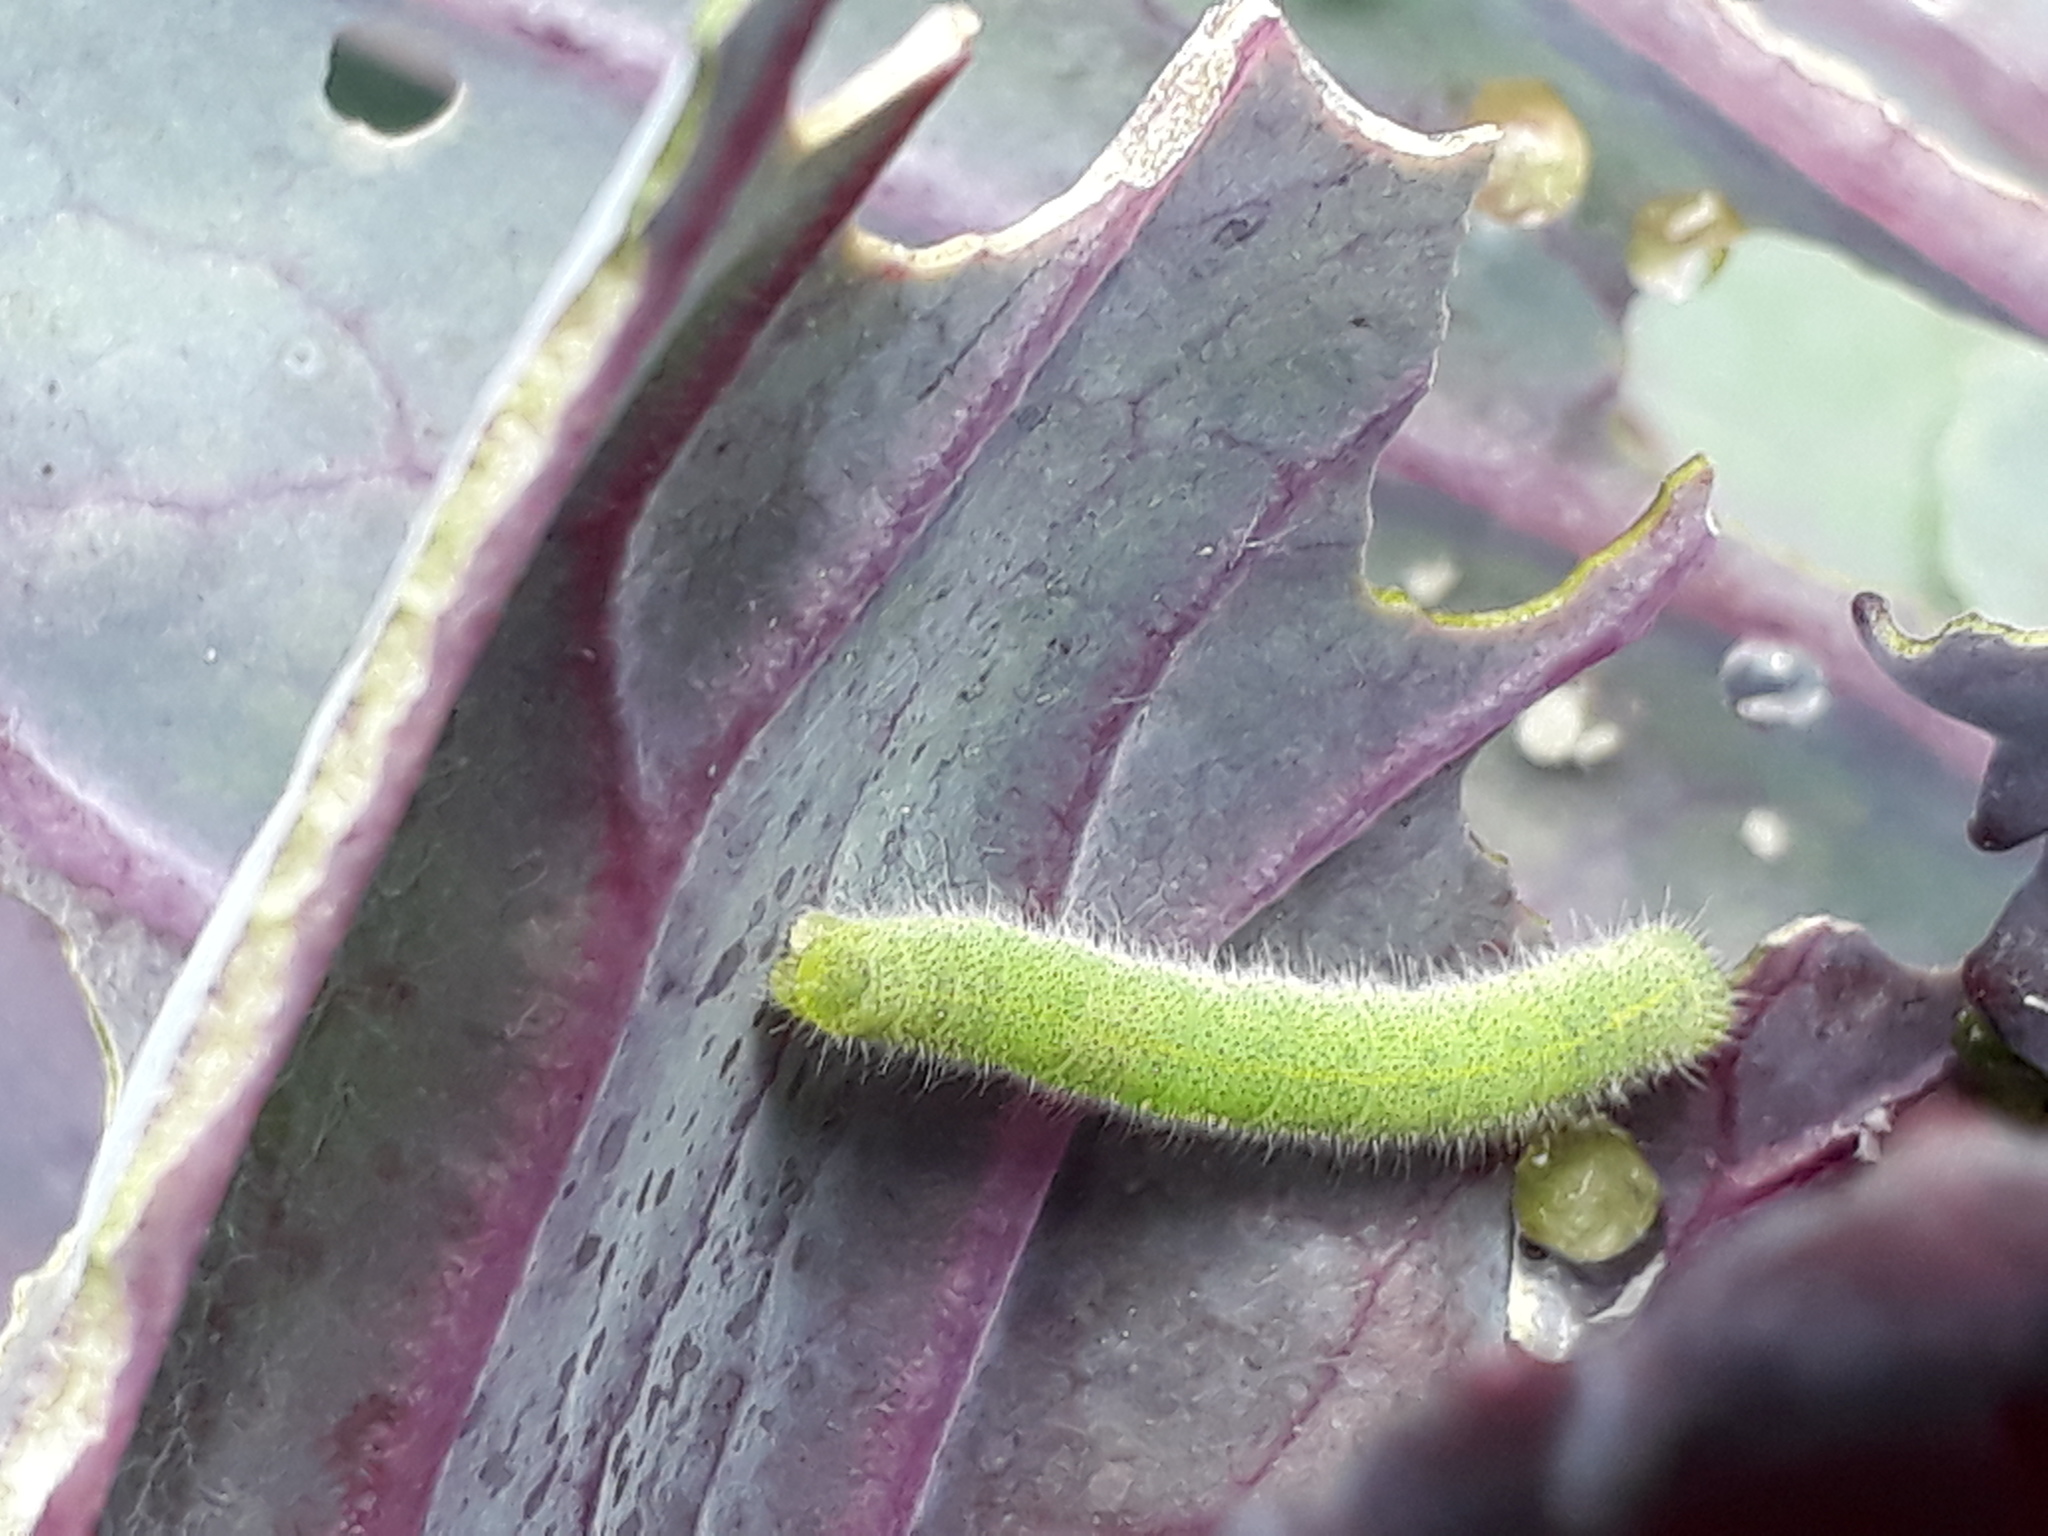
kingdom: Animalia
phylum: Arthropoda
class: Insecta
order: Lepidoptera
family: Pieridae
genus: Pieris
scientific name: Pieris rapae
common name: Small white
